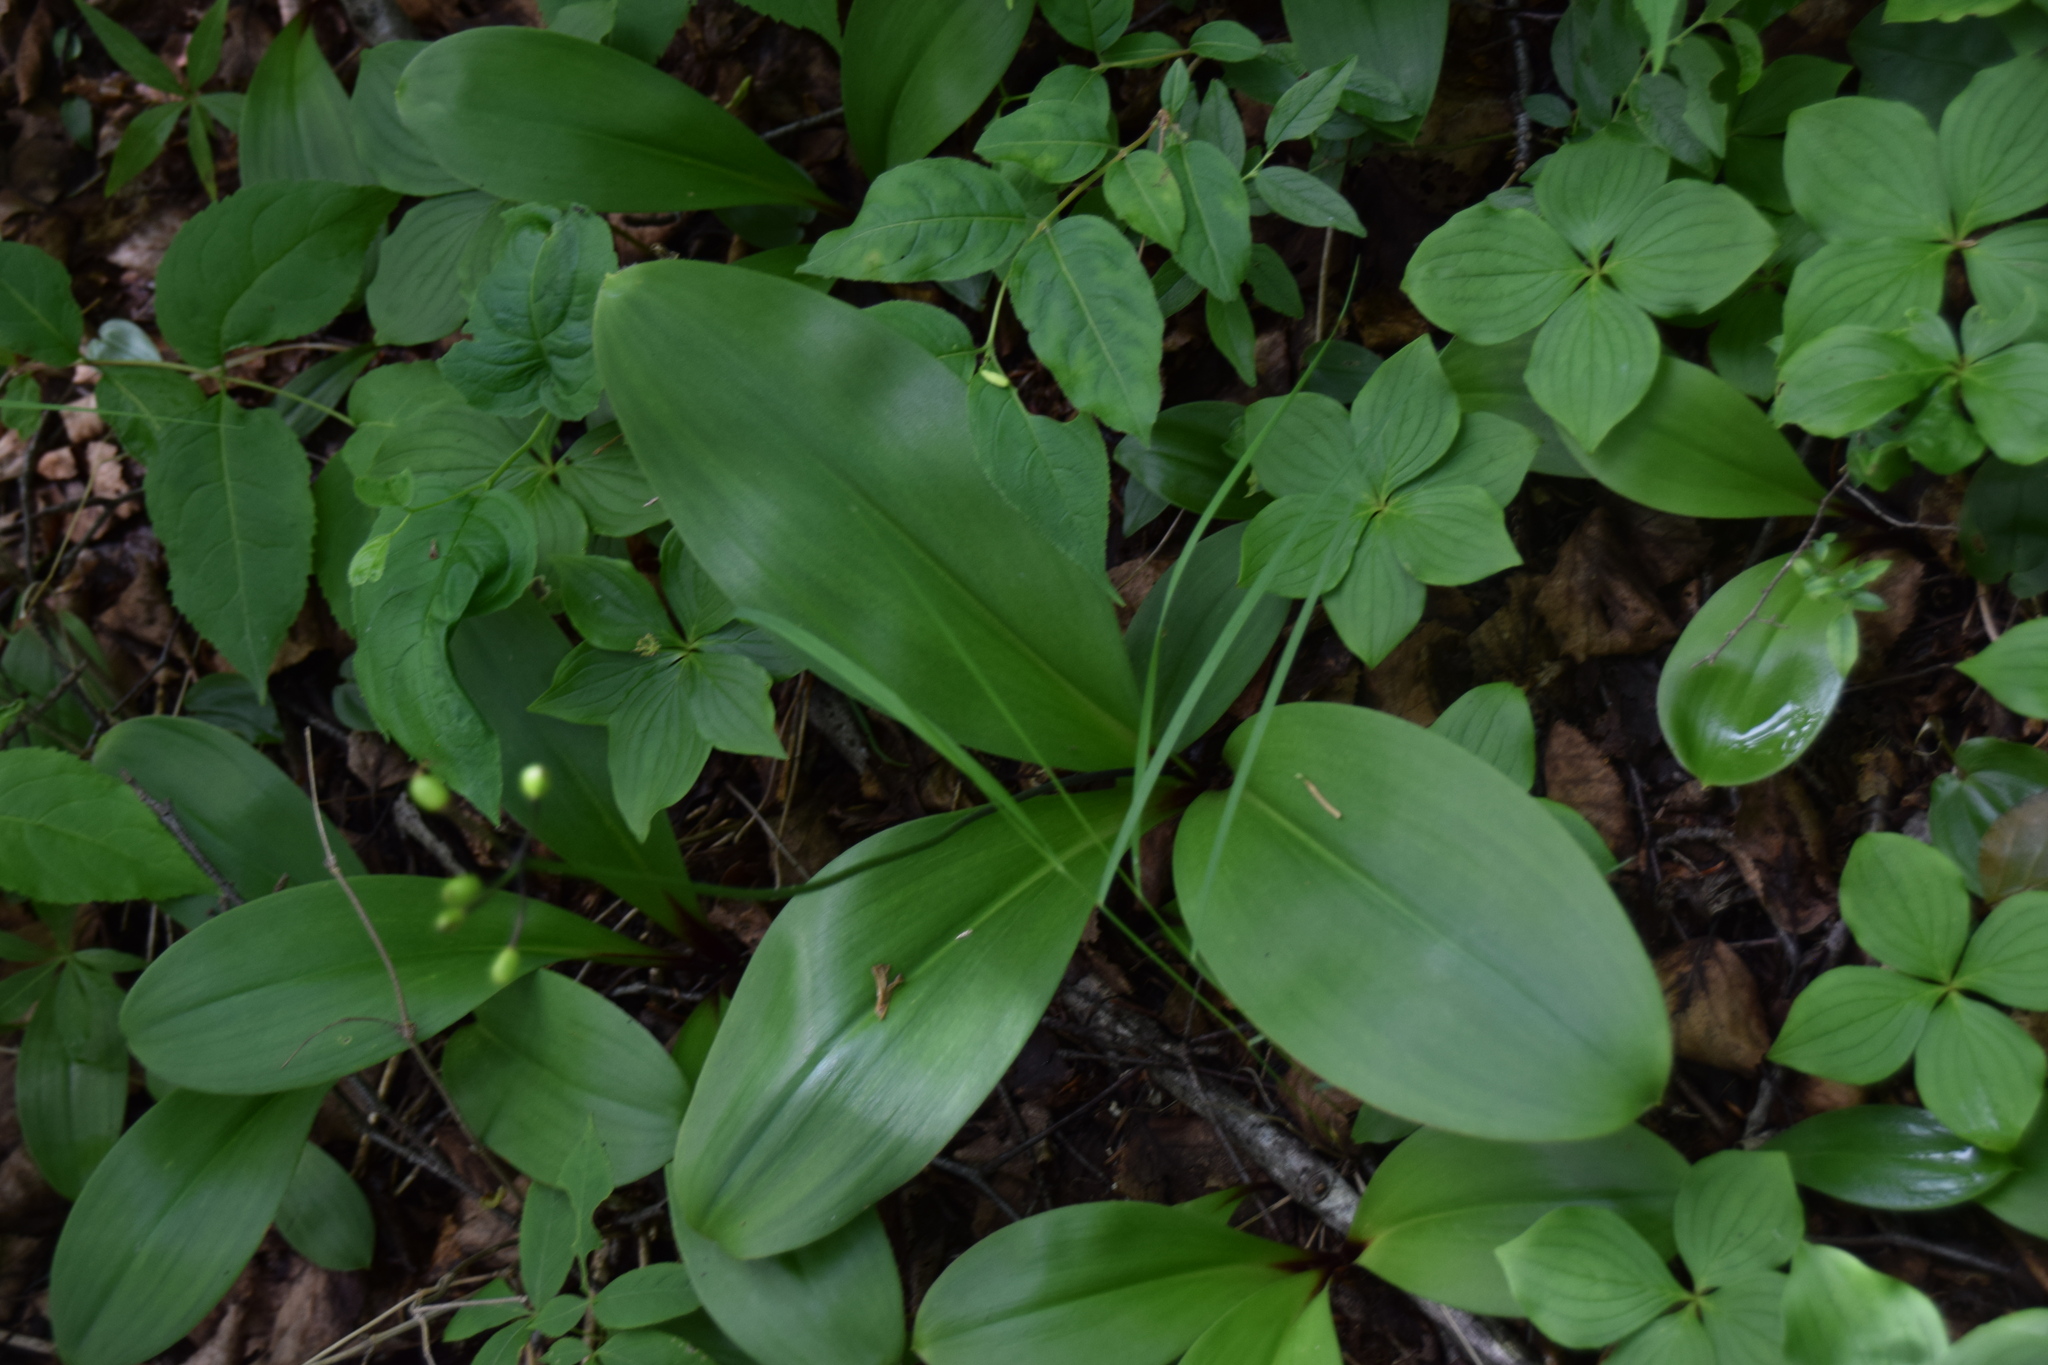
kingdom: Plantae
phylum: Tracheophyta
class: Liliopsida
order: Liliales
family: Liliaceae
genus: Clintonia
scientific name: Clintonia borealis
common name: Yellow clintonia
